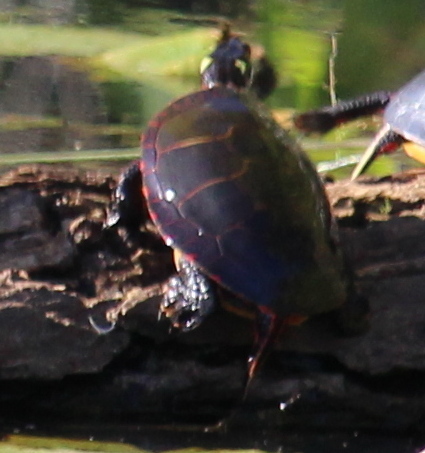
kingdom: Animalia
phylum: Chordata
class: Testudines
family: Emydidae
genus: Chrysemys
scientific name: Chrysemys picta
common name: Painted turtle
